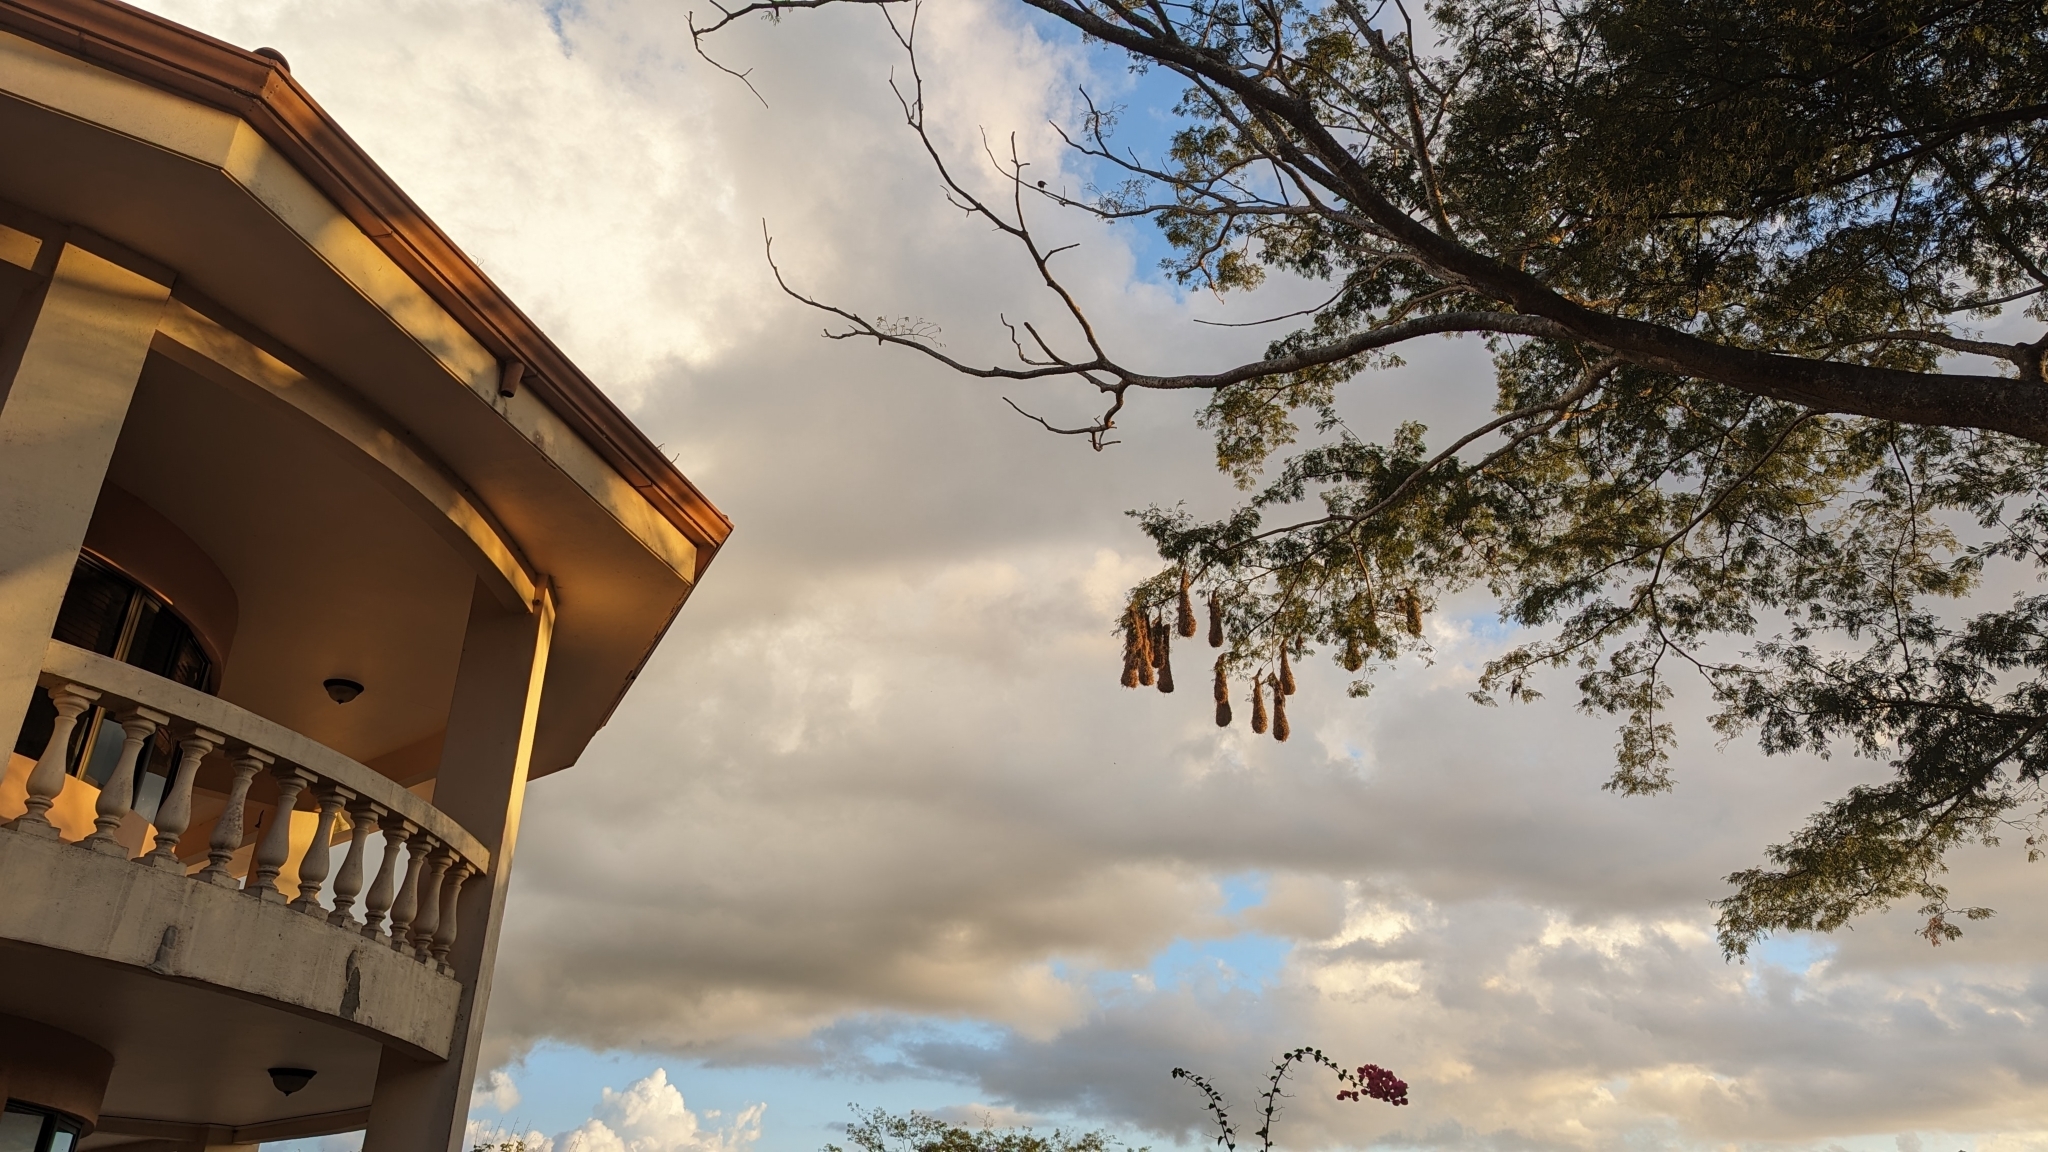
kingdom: Animalia
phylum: Chordata
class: Aves
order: Passeriformes
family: Icteridae
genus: Psarocolius
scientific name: Psarocolius montezuma
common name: Montezuma oropendola
